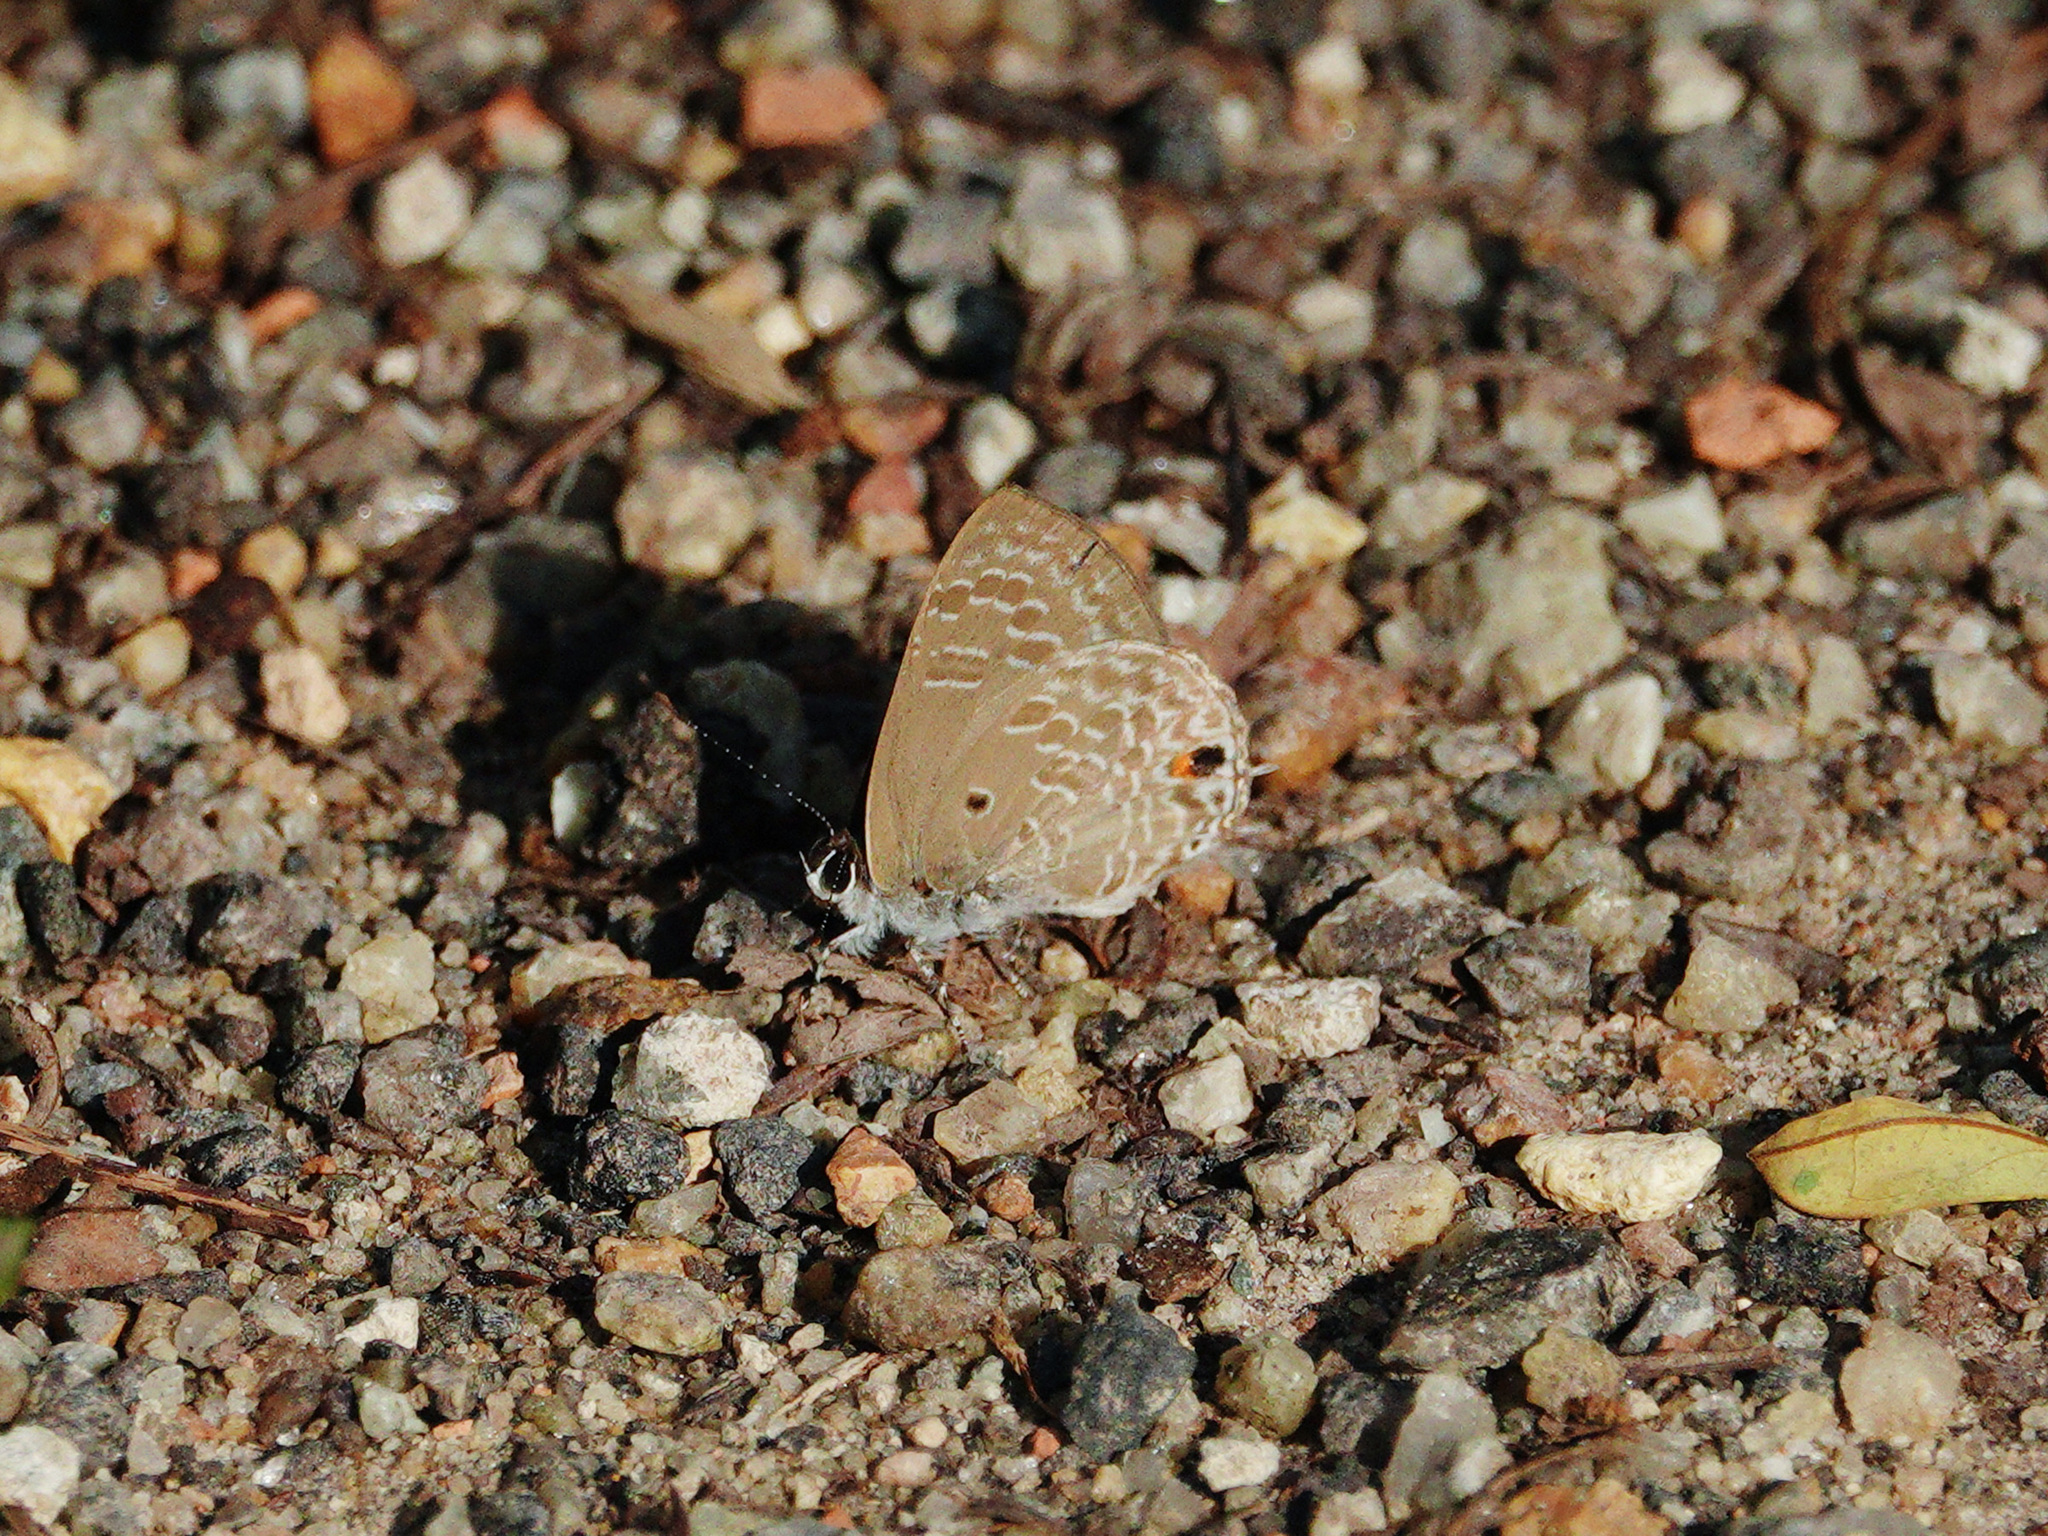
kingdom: Animalia
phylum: Arthropoda
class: Insecta
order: Lepidoptera
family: Lycaenidae
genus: Anthene
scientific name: Anthene lycaenina
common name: Pointed ciliate blue
